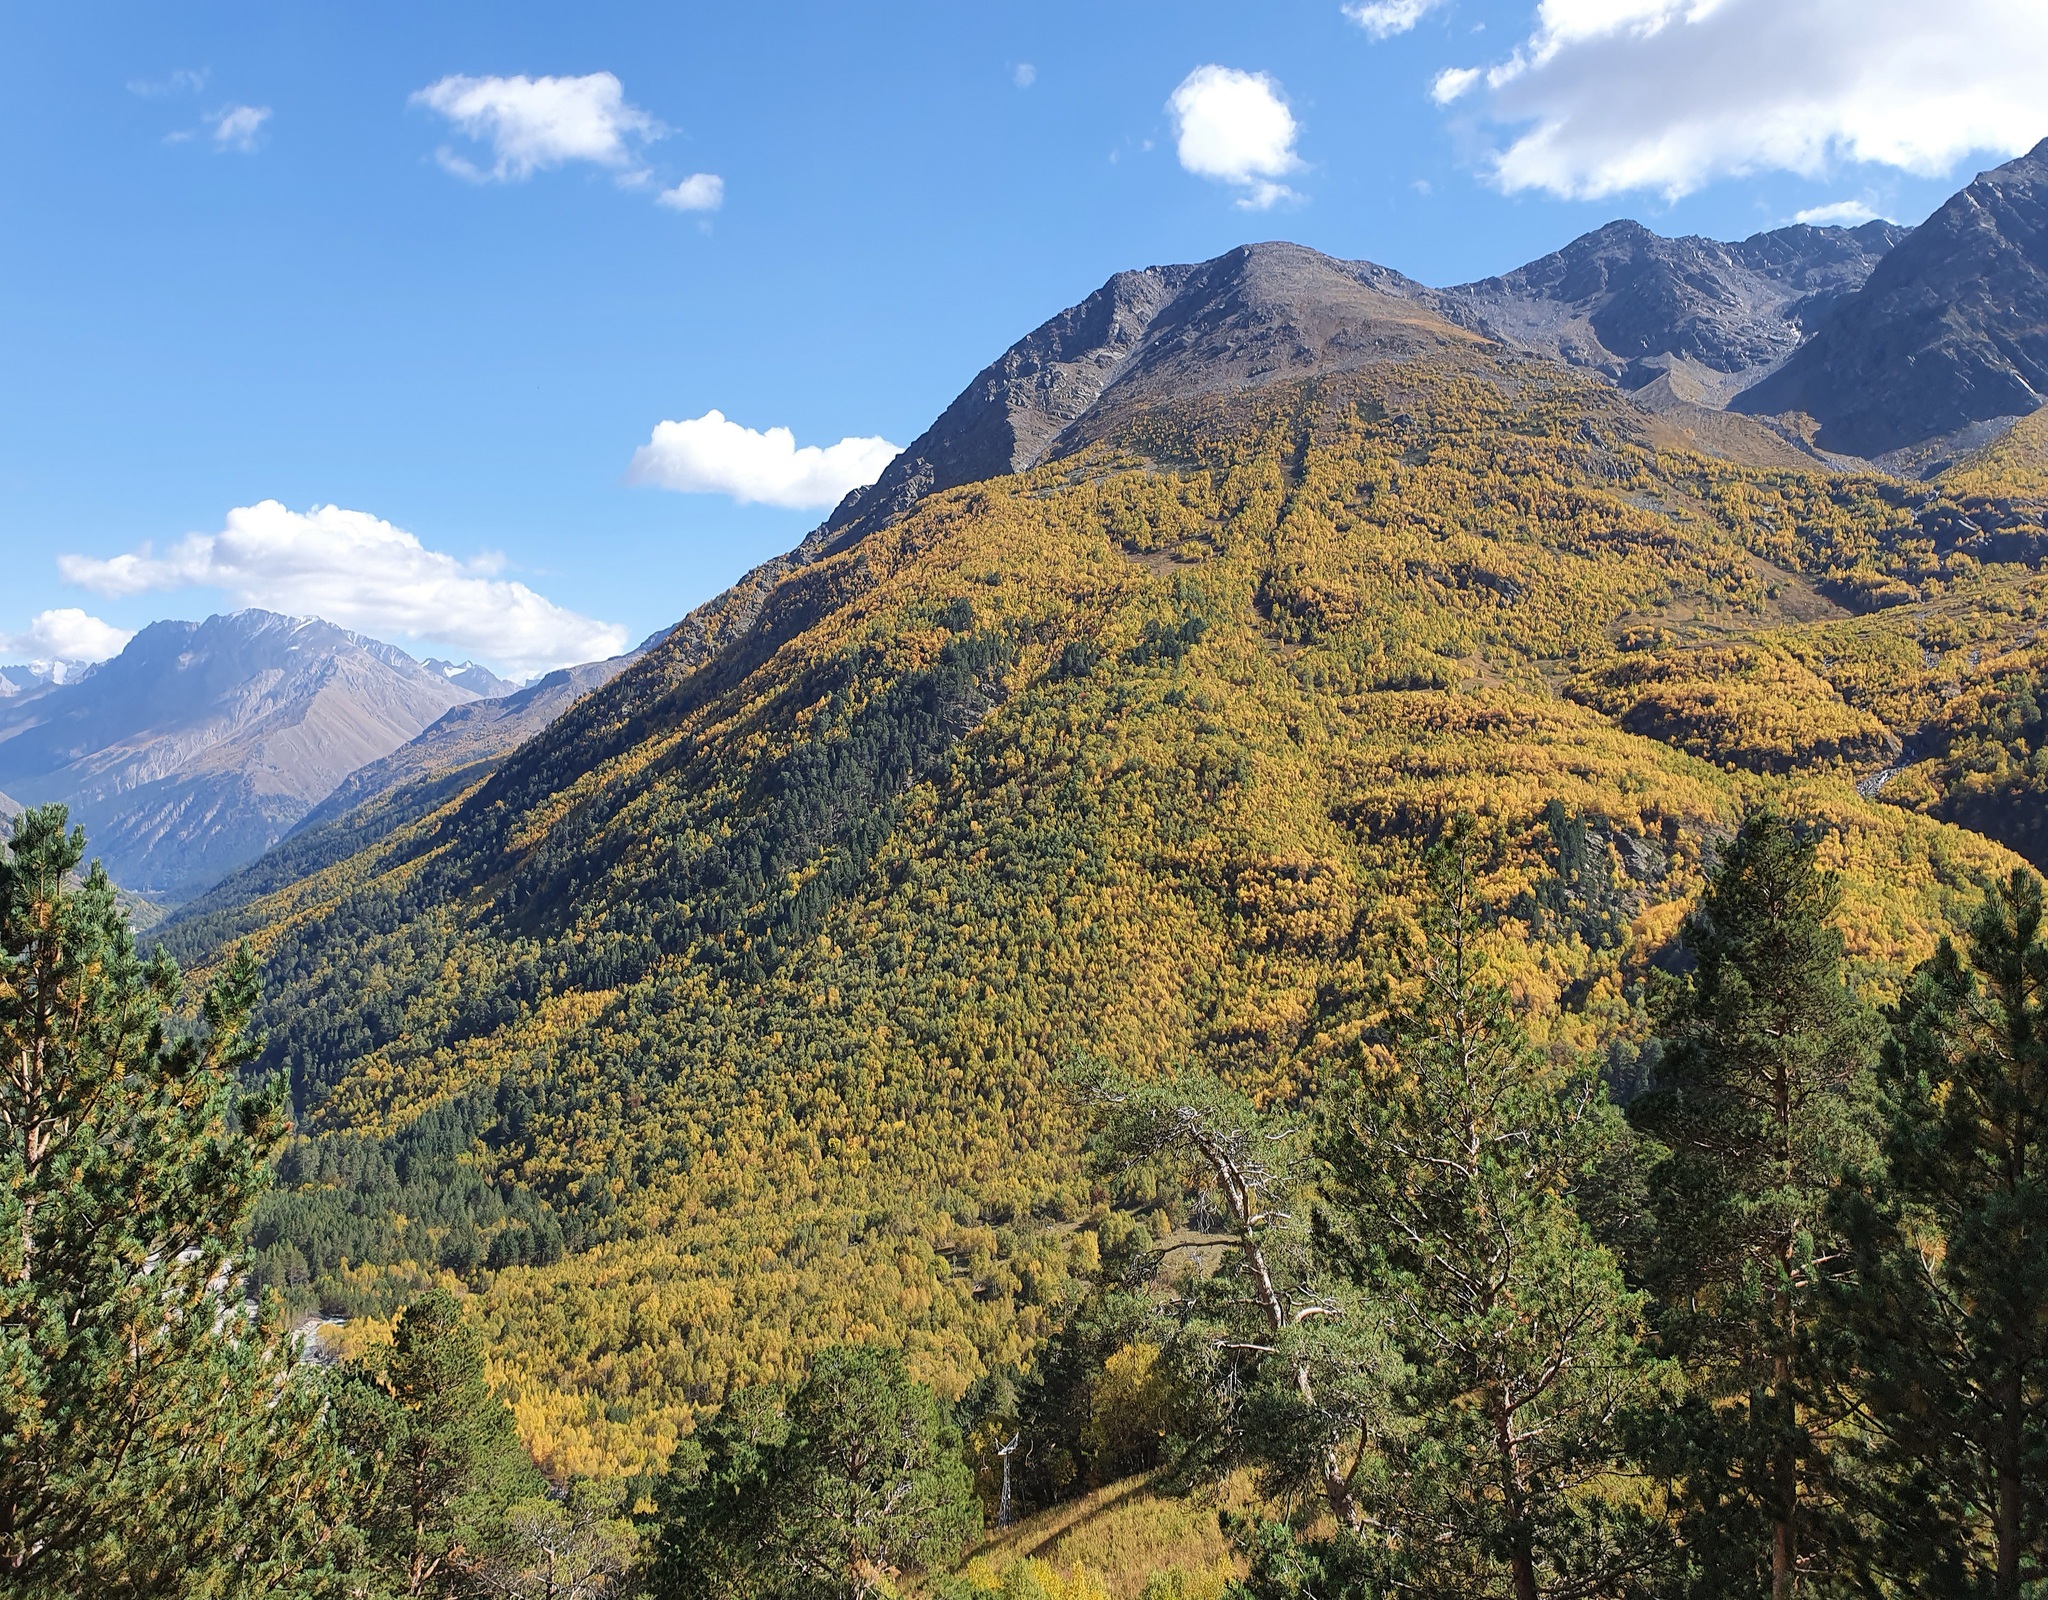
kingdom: Plantae
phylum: Tracheophyta
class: Pinopsida
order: Pinales
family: Pinaceae
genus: Pinus
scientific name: Pinus sylvestris
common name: Scots pine
